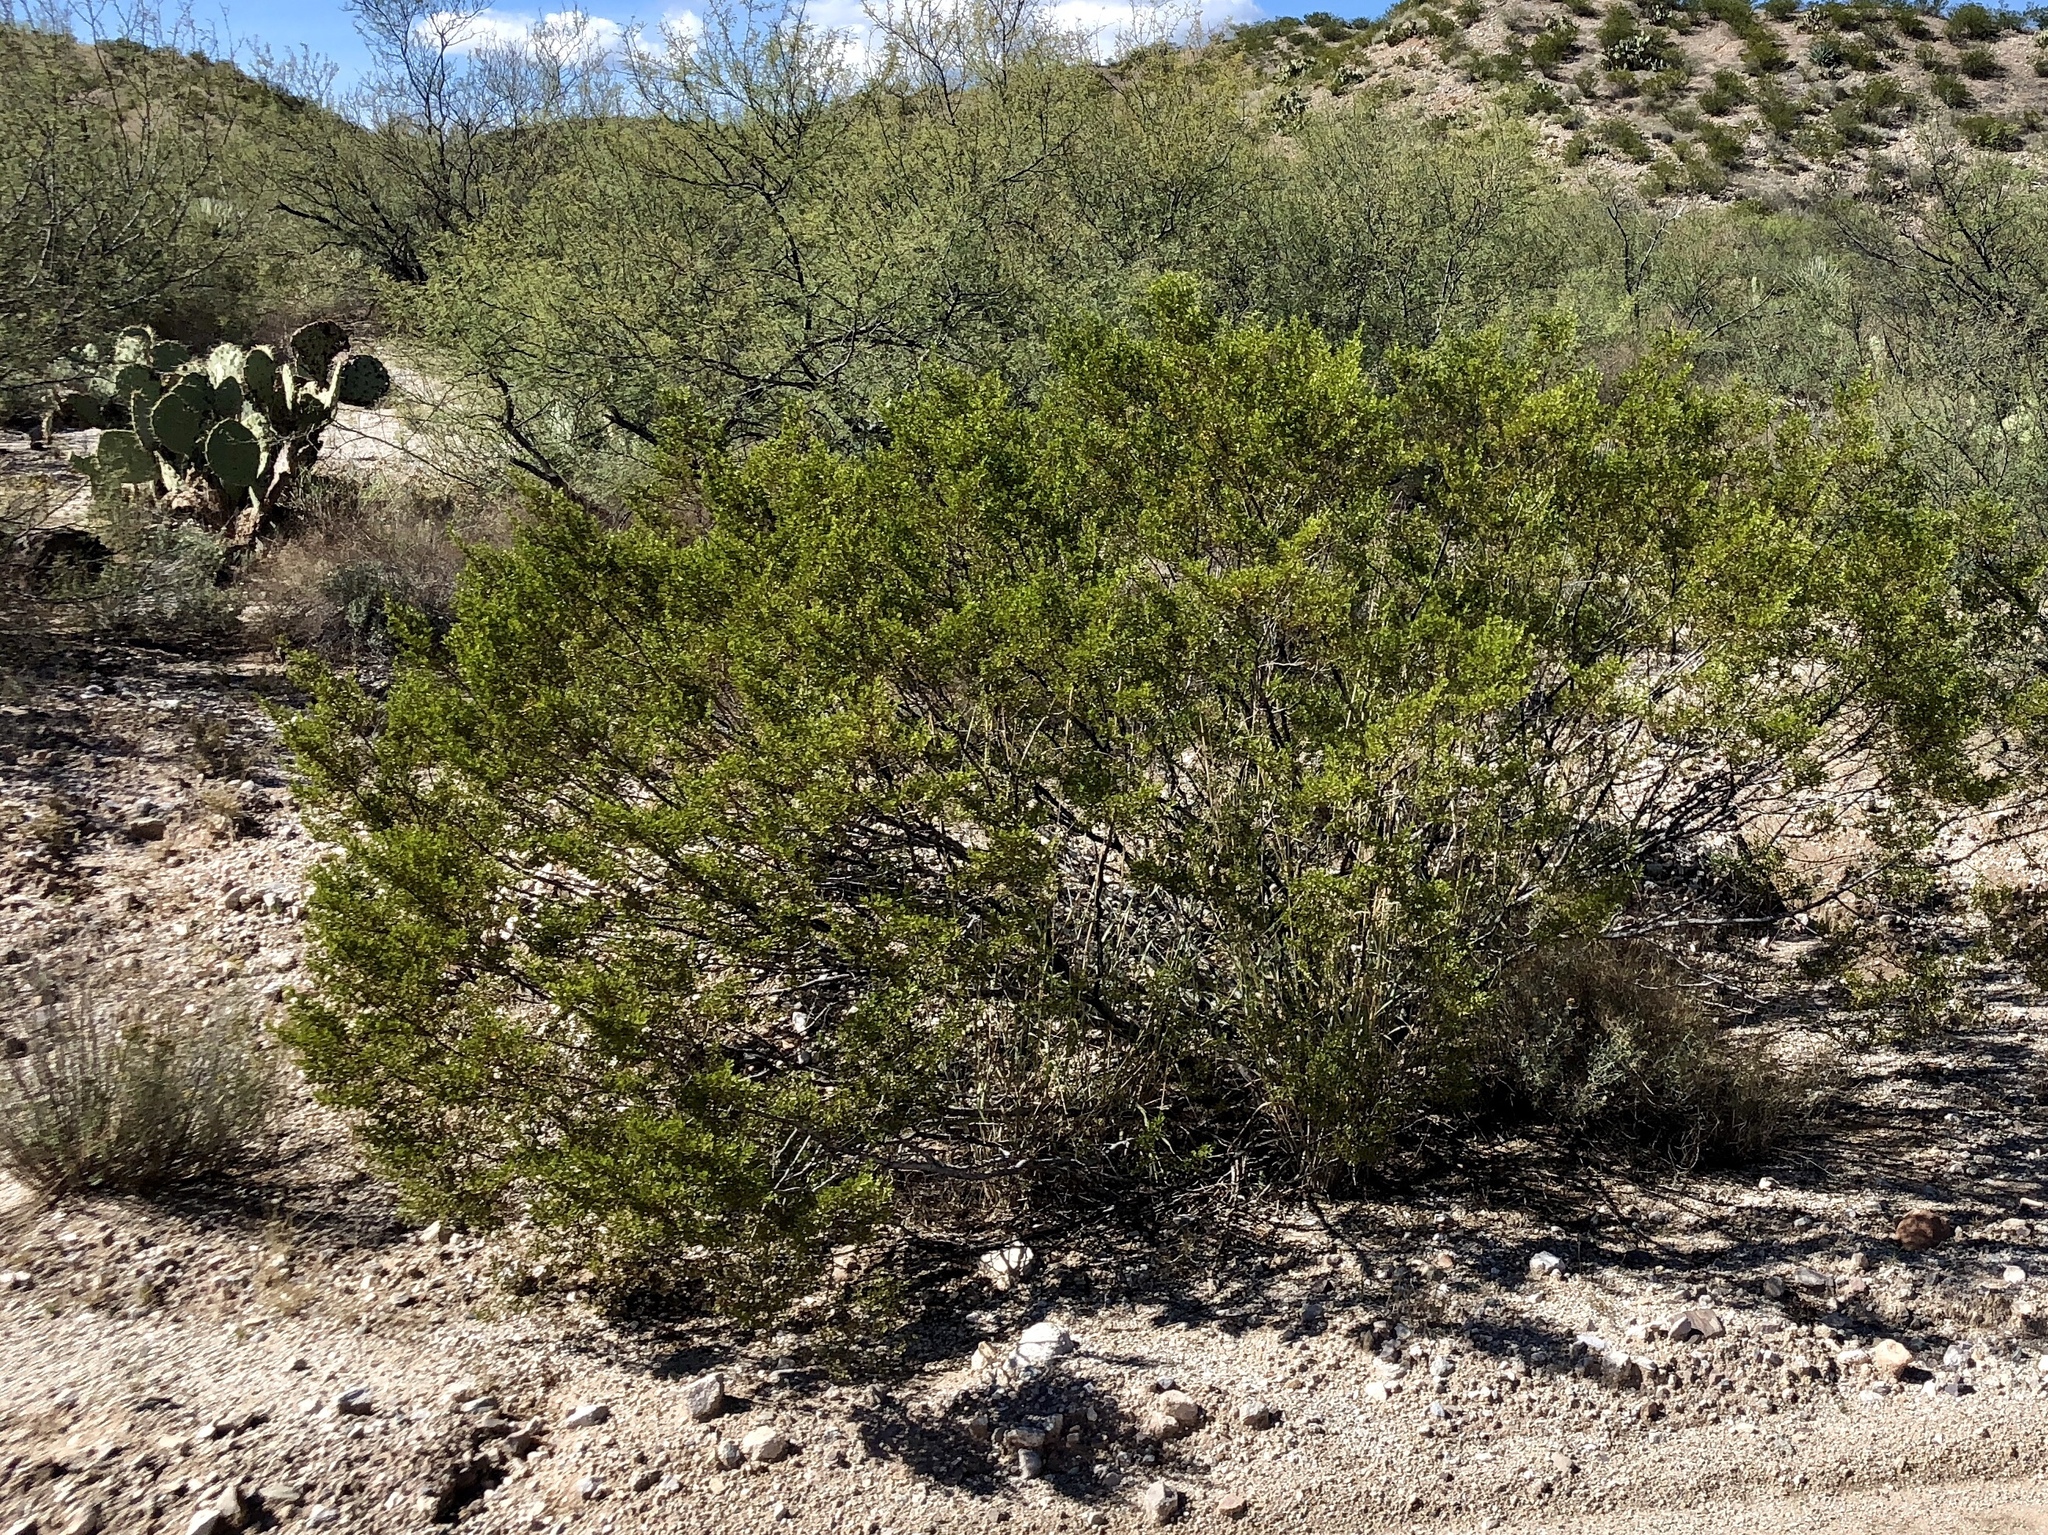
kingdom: Plantae
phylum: Tracheophyta
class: Magnoliopsida
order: Zygophyllales
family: Zygophyllaceae
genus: Larrea
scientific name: Larrea tridentata
